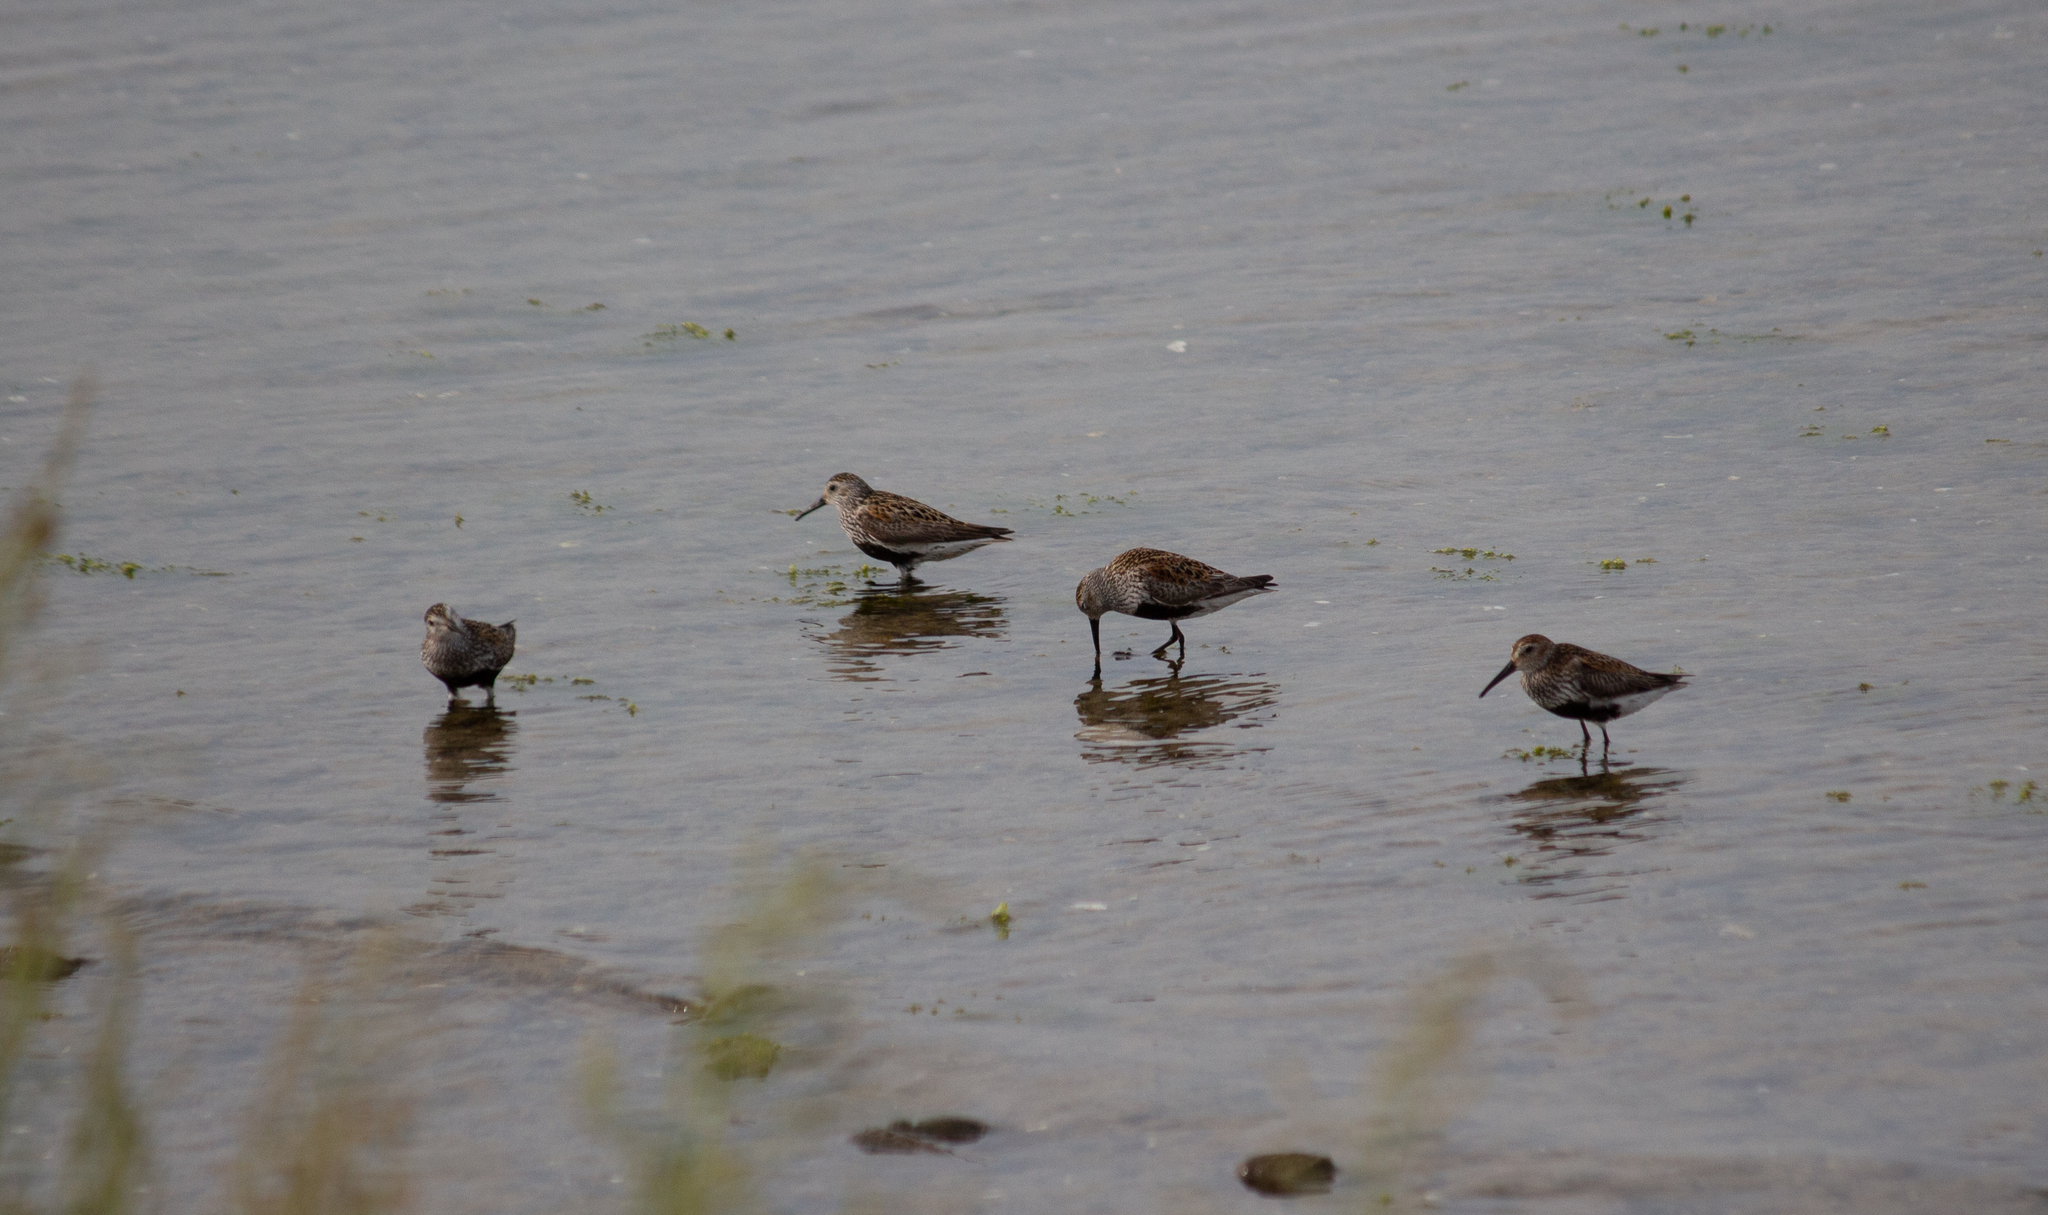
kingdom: Animalia
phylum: Chordata
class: Aves
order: Charadriiformes
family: Scolopacidae
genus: Calidris
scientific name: Calidris alpina
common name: Dunlin
